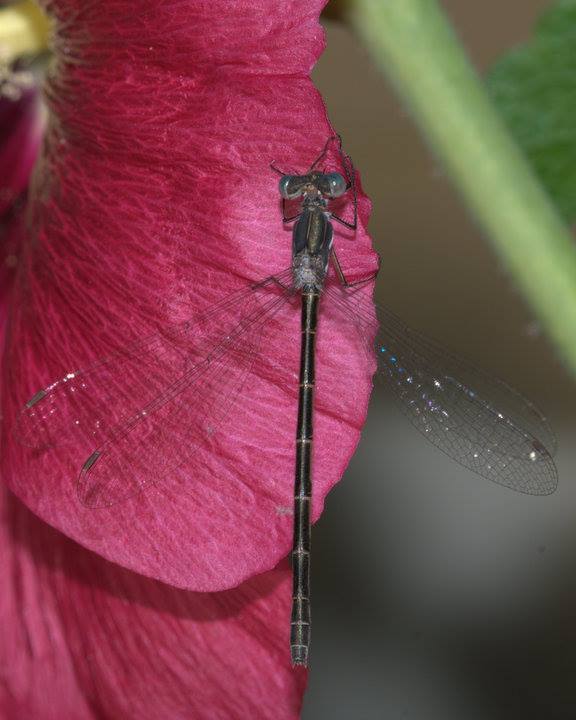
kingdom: Animalia
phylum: Arthropoda
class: Insecta
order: Odonata
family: Lestidae
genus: Lestes
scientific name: Lestes congener
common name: Spotted spreadwing
